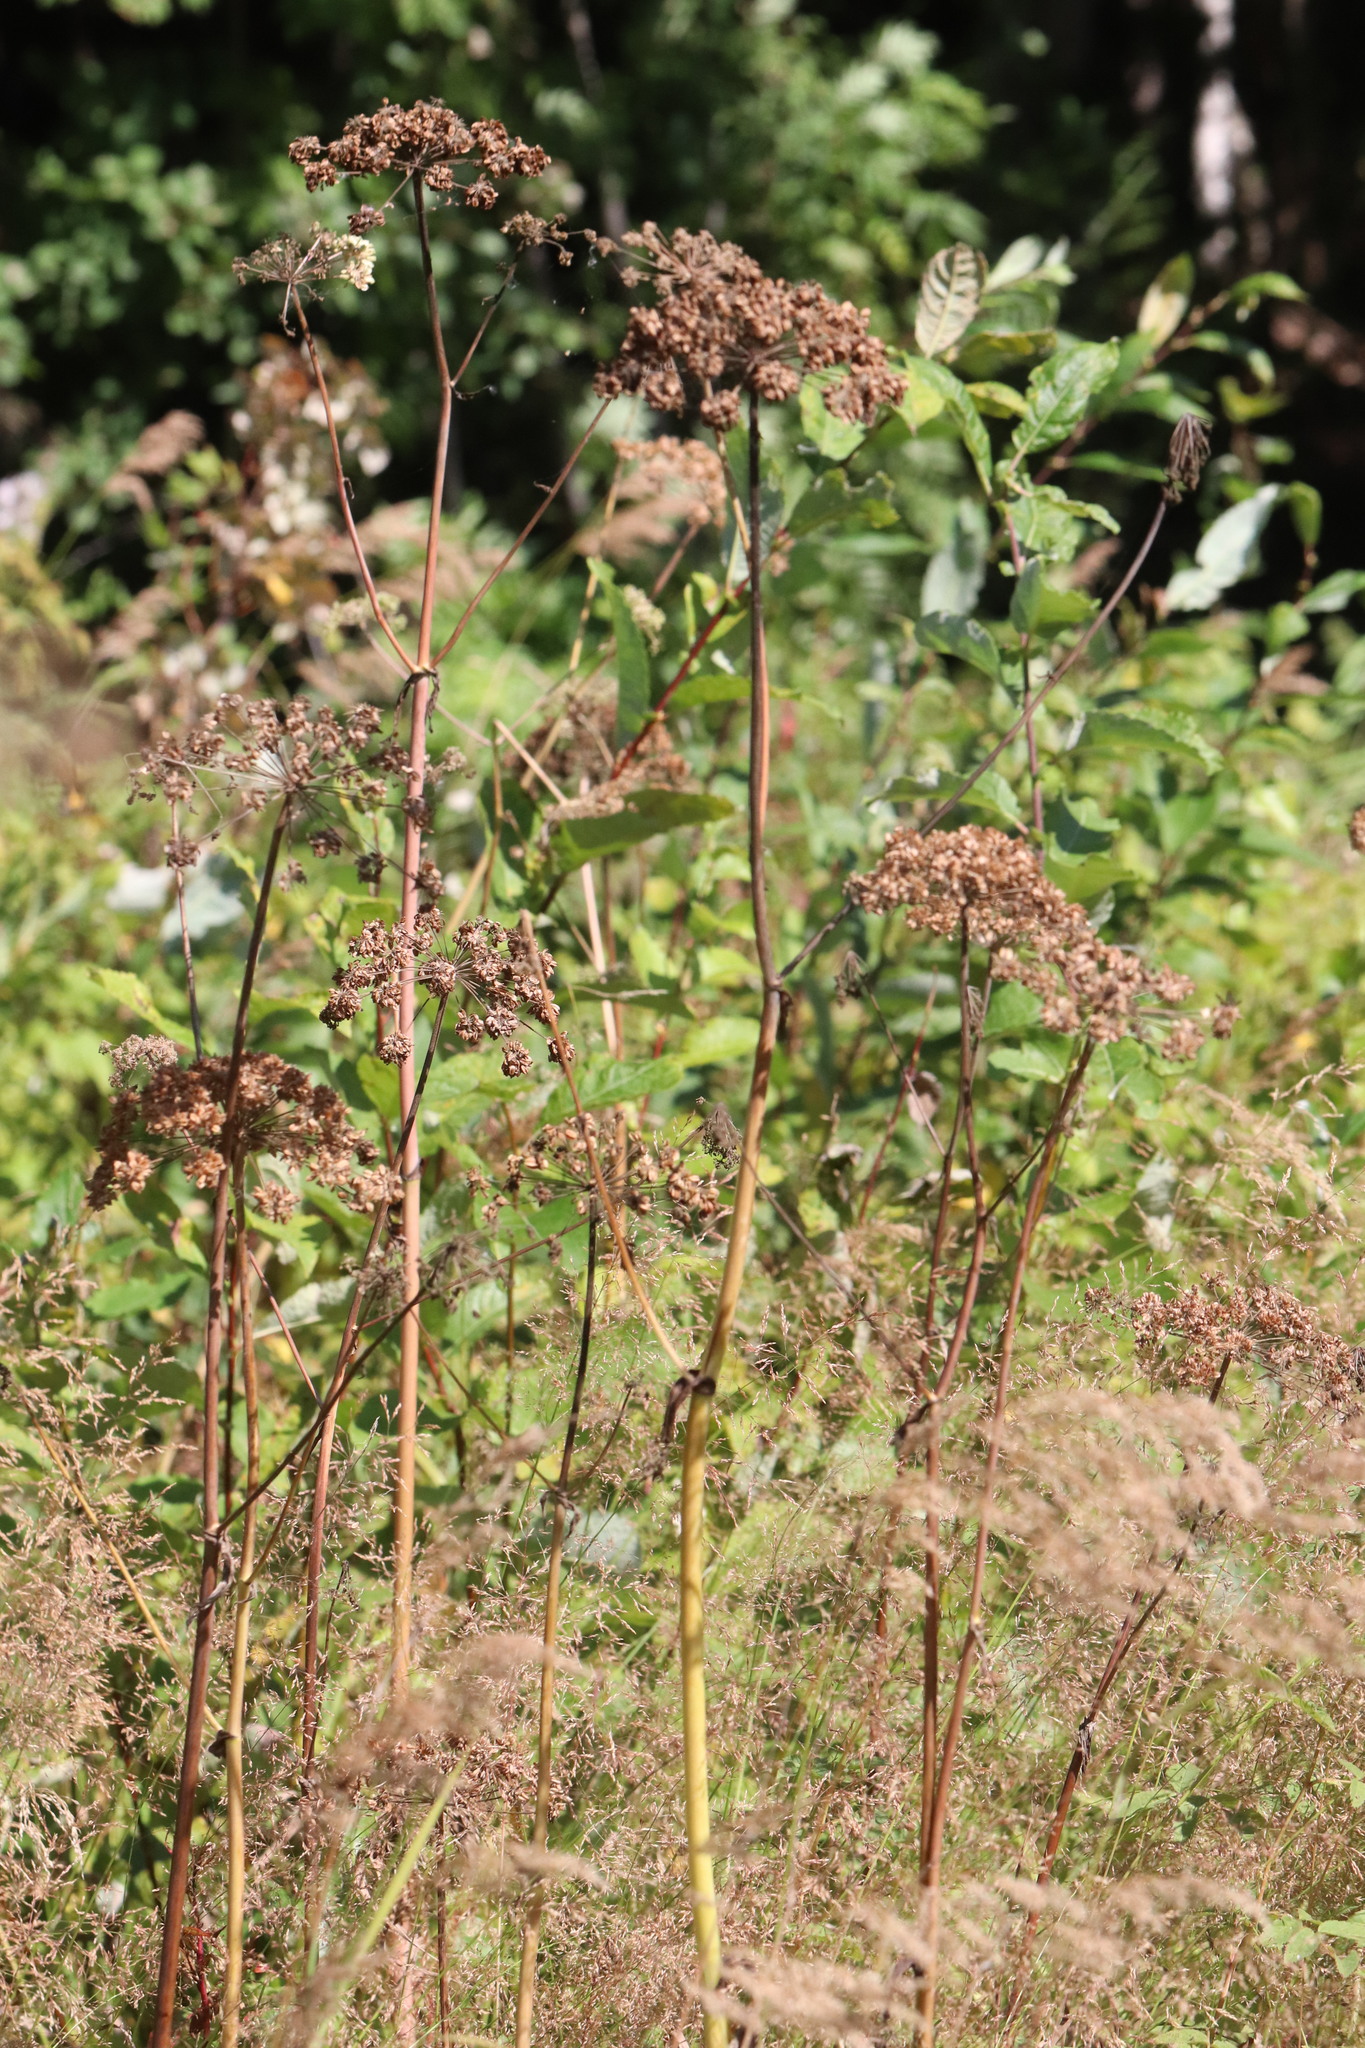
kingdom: Plantae
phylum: Tracheophyta
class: Magnoliopsida
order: Apiales
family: Apiaceae
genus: Angelica
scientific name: Angelica sylvestris
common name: Wild angelica
